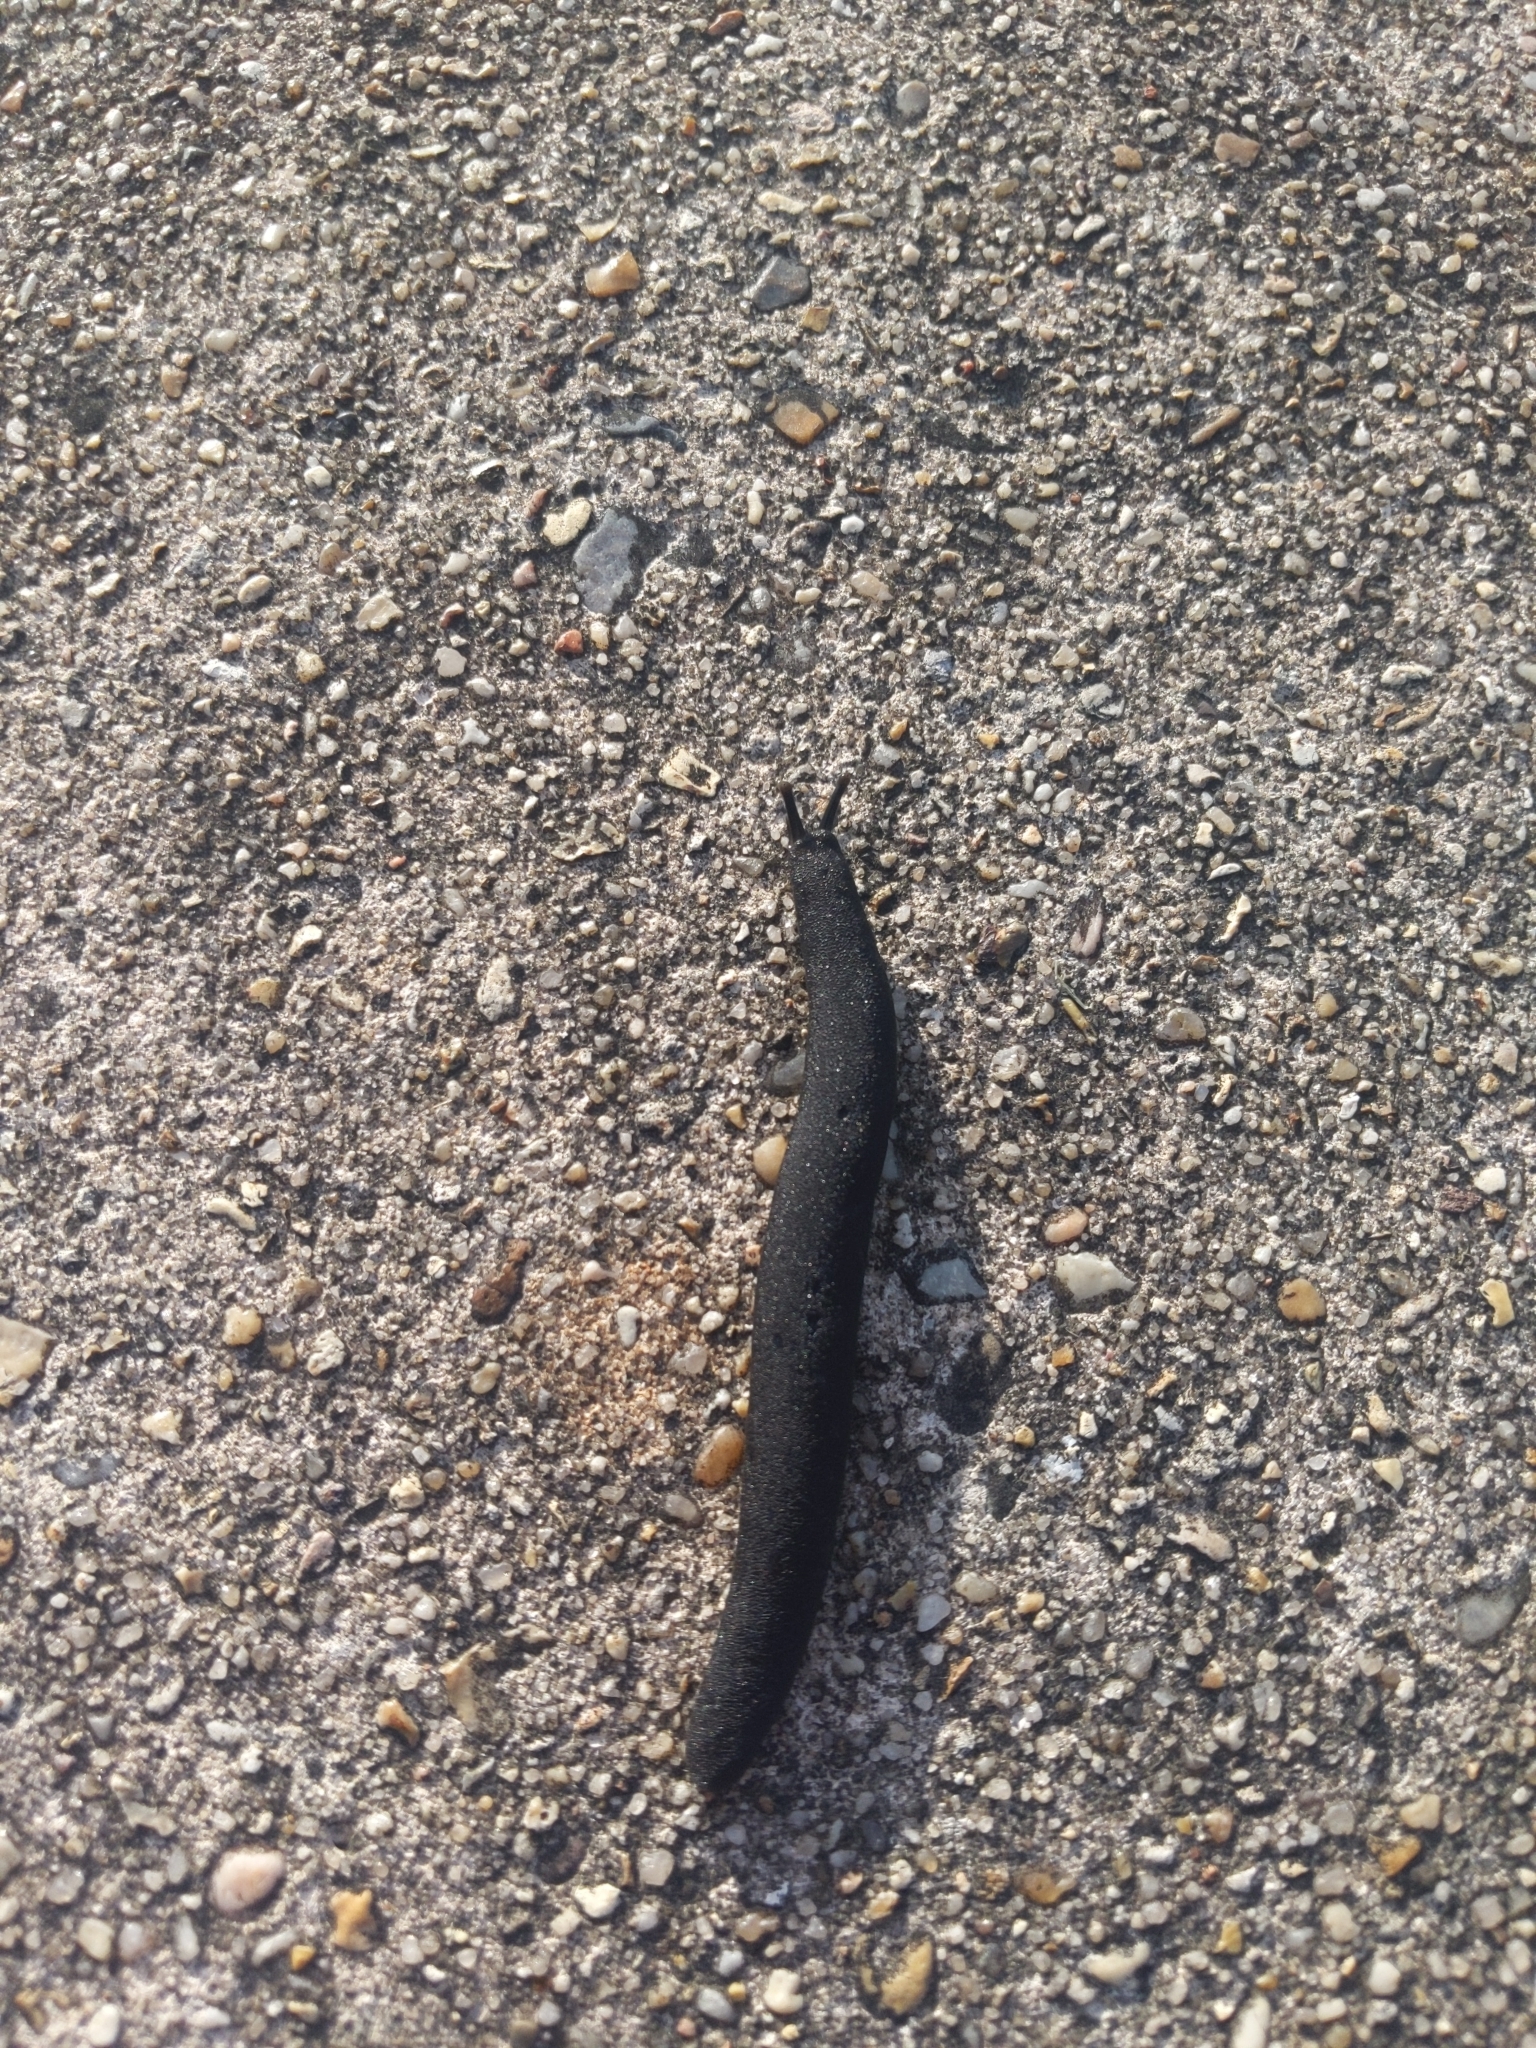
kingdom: Animalia
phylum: Mollusca
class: Gastropoda
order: Systellommatophora
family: Veronicellidae
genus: Belocaulus
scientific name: Belocaulus angustipes
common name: Black velvet leatherleaf slug
